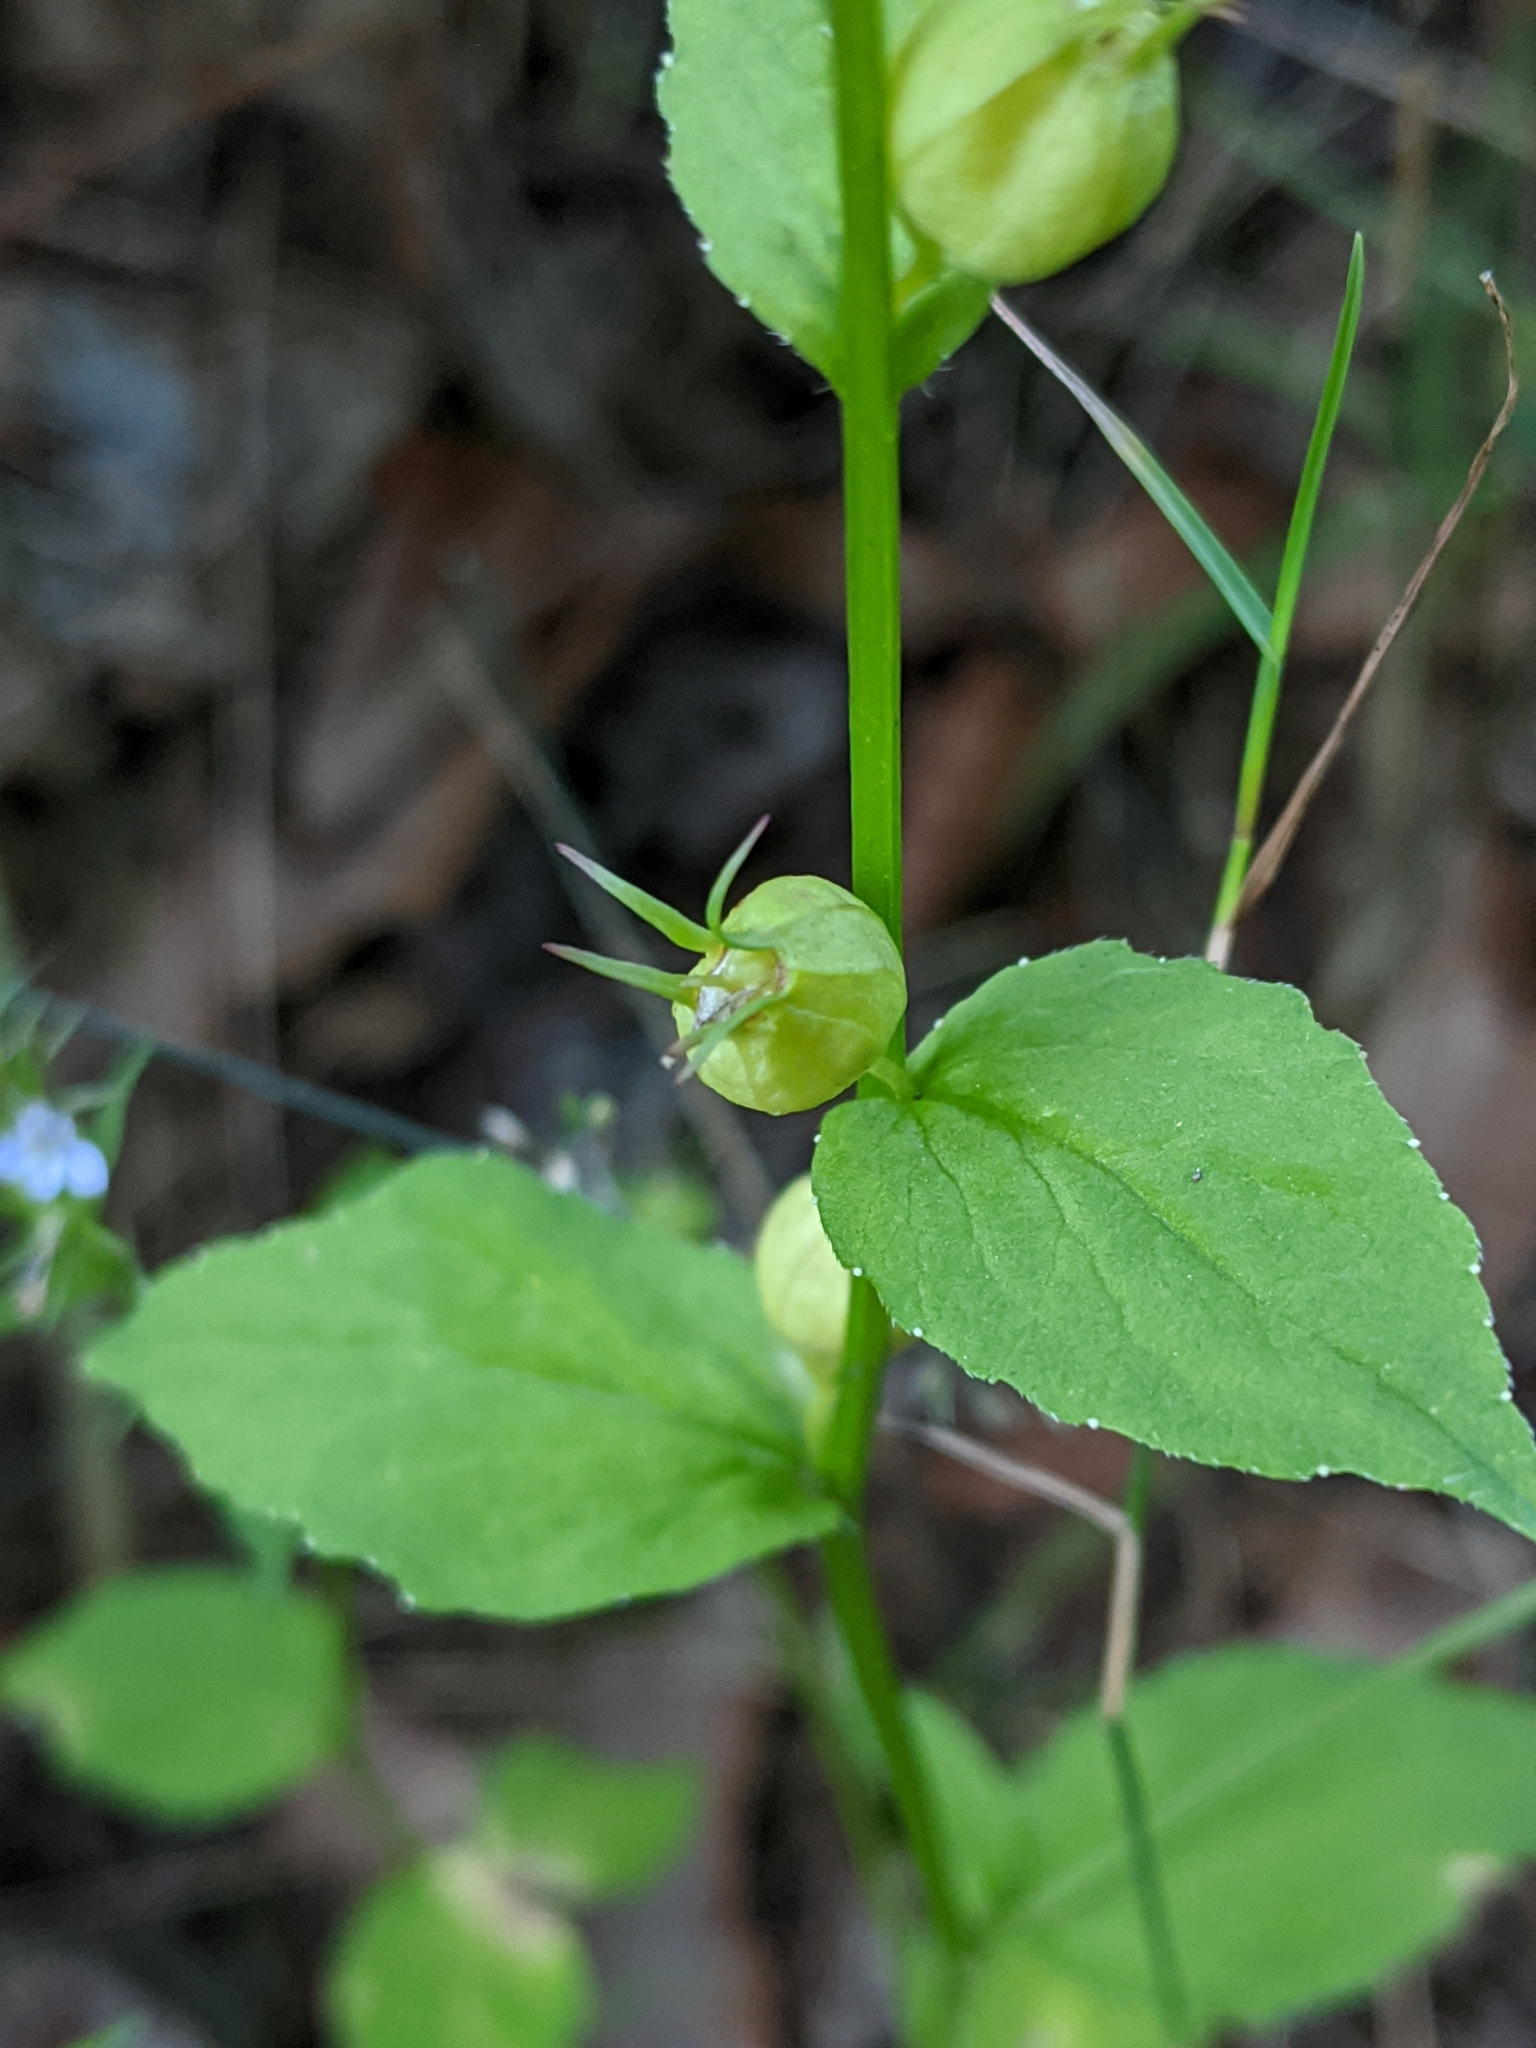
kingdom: Plantae
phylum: Tracheophyta
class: Magnoliopsida
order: Asterales
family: Campanulaceae
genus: Lobelia
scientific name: Lobelia inflata
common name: Indian tobacco
